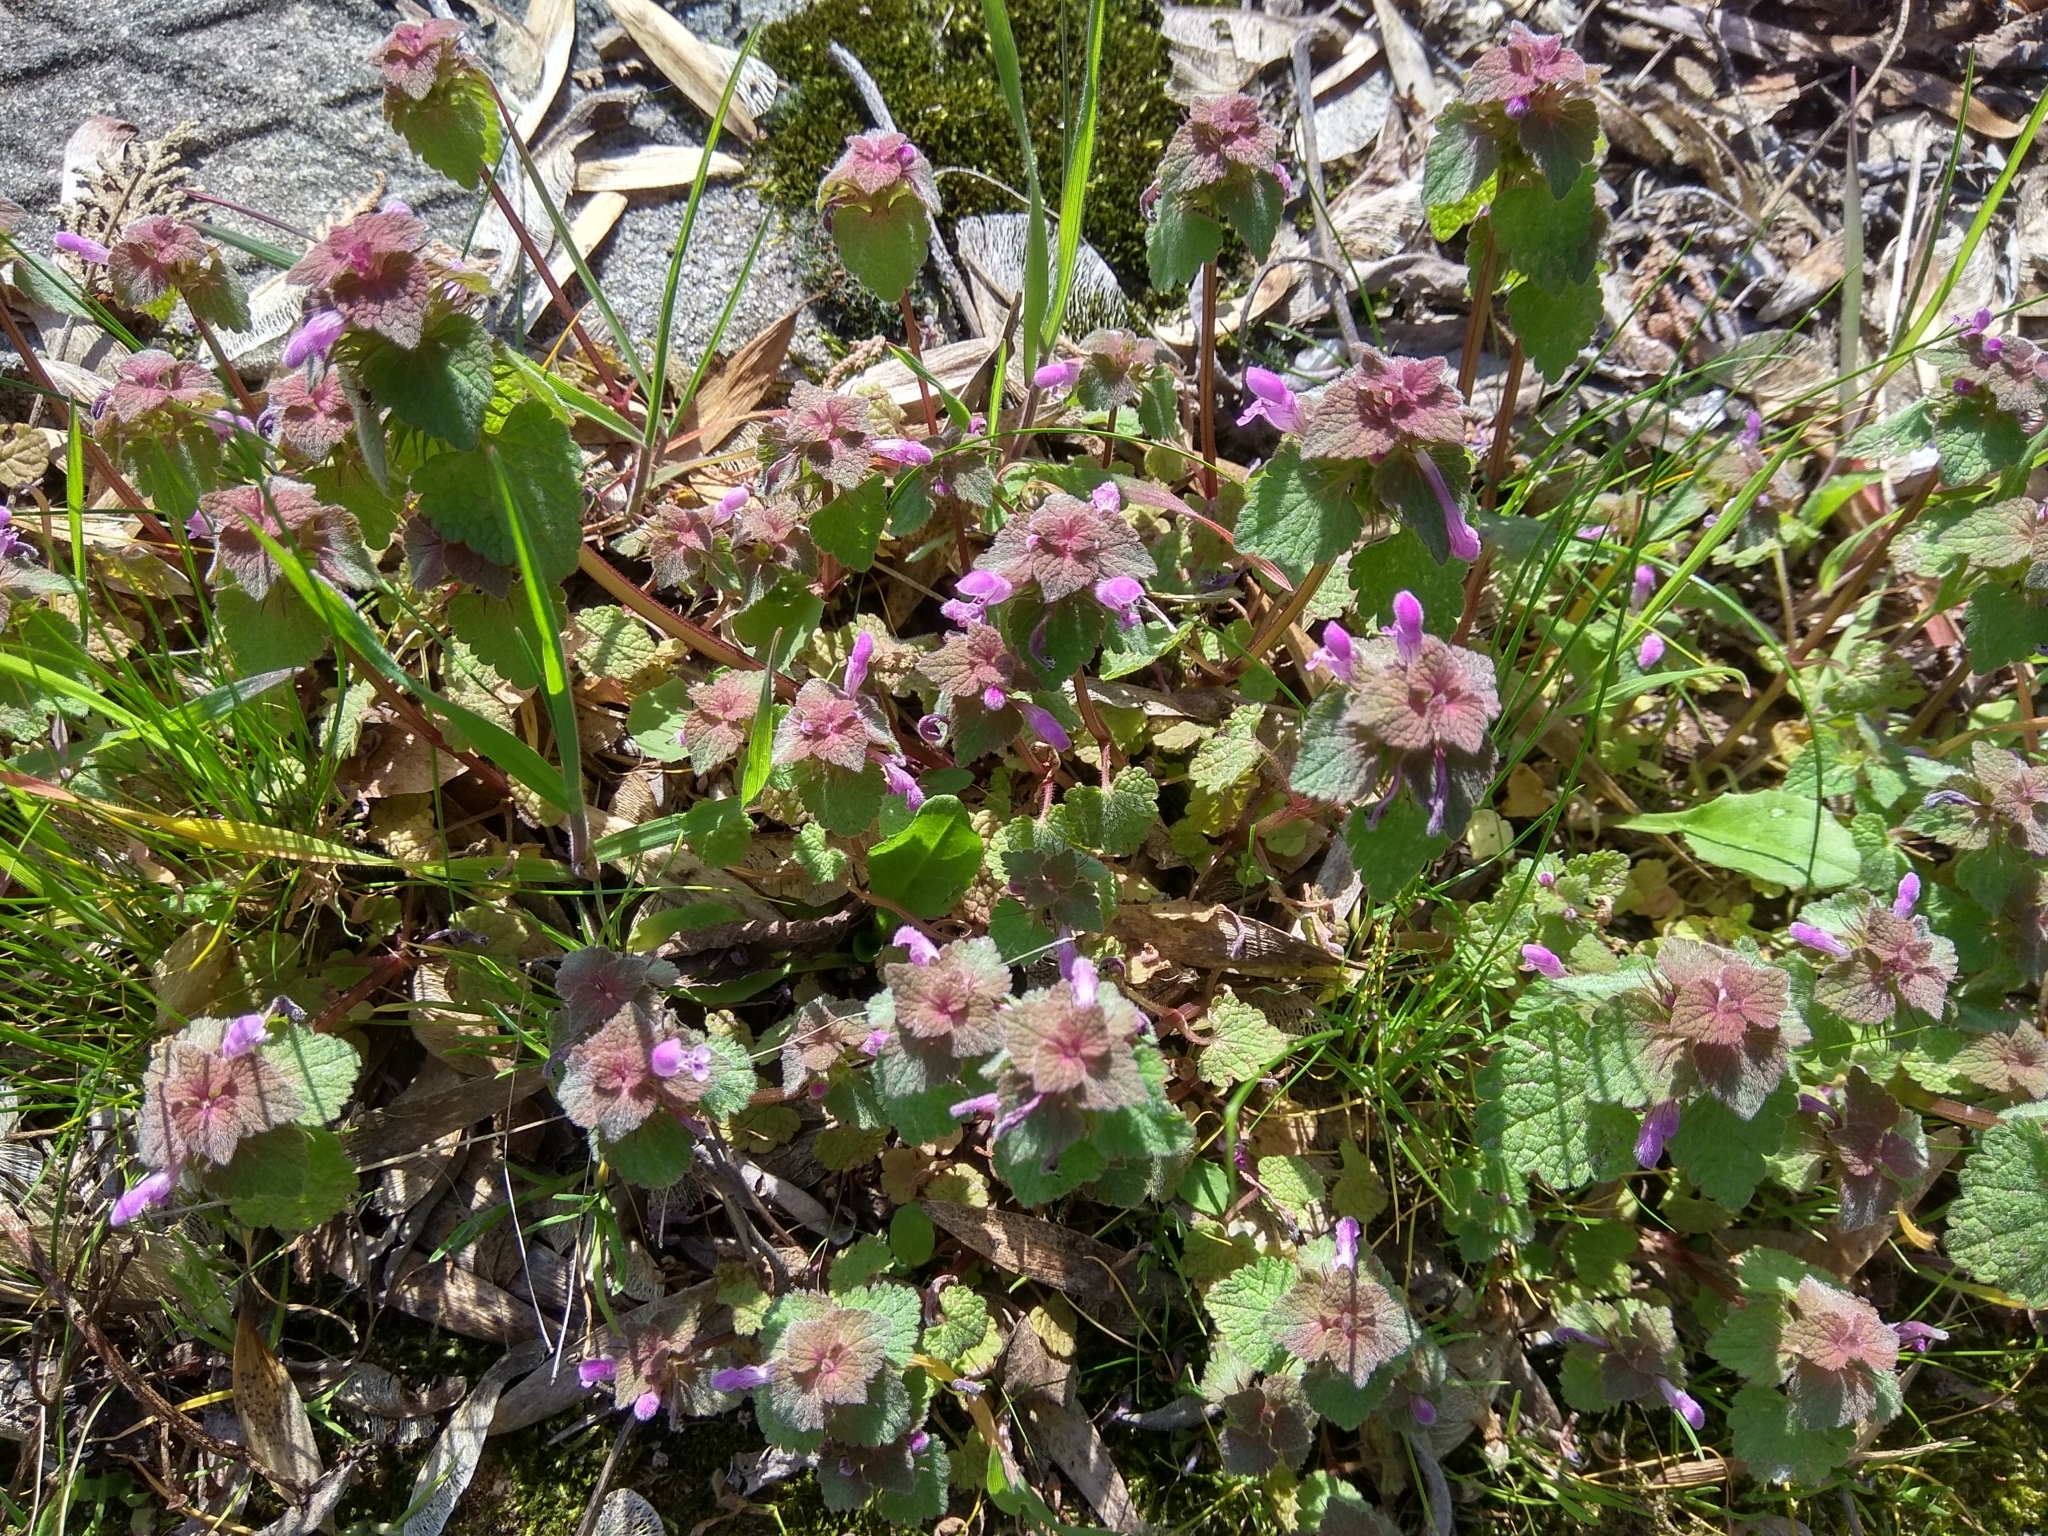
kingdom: Plantae
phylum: Tracheophyta
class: Magnoliopsida
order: Lamiales
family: Lamiaceae
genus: Lamium
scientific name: Lamium purpureum
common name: Red dead-nettle
